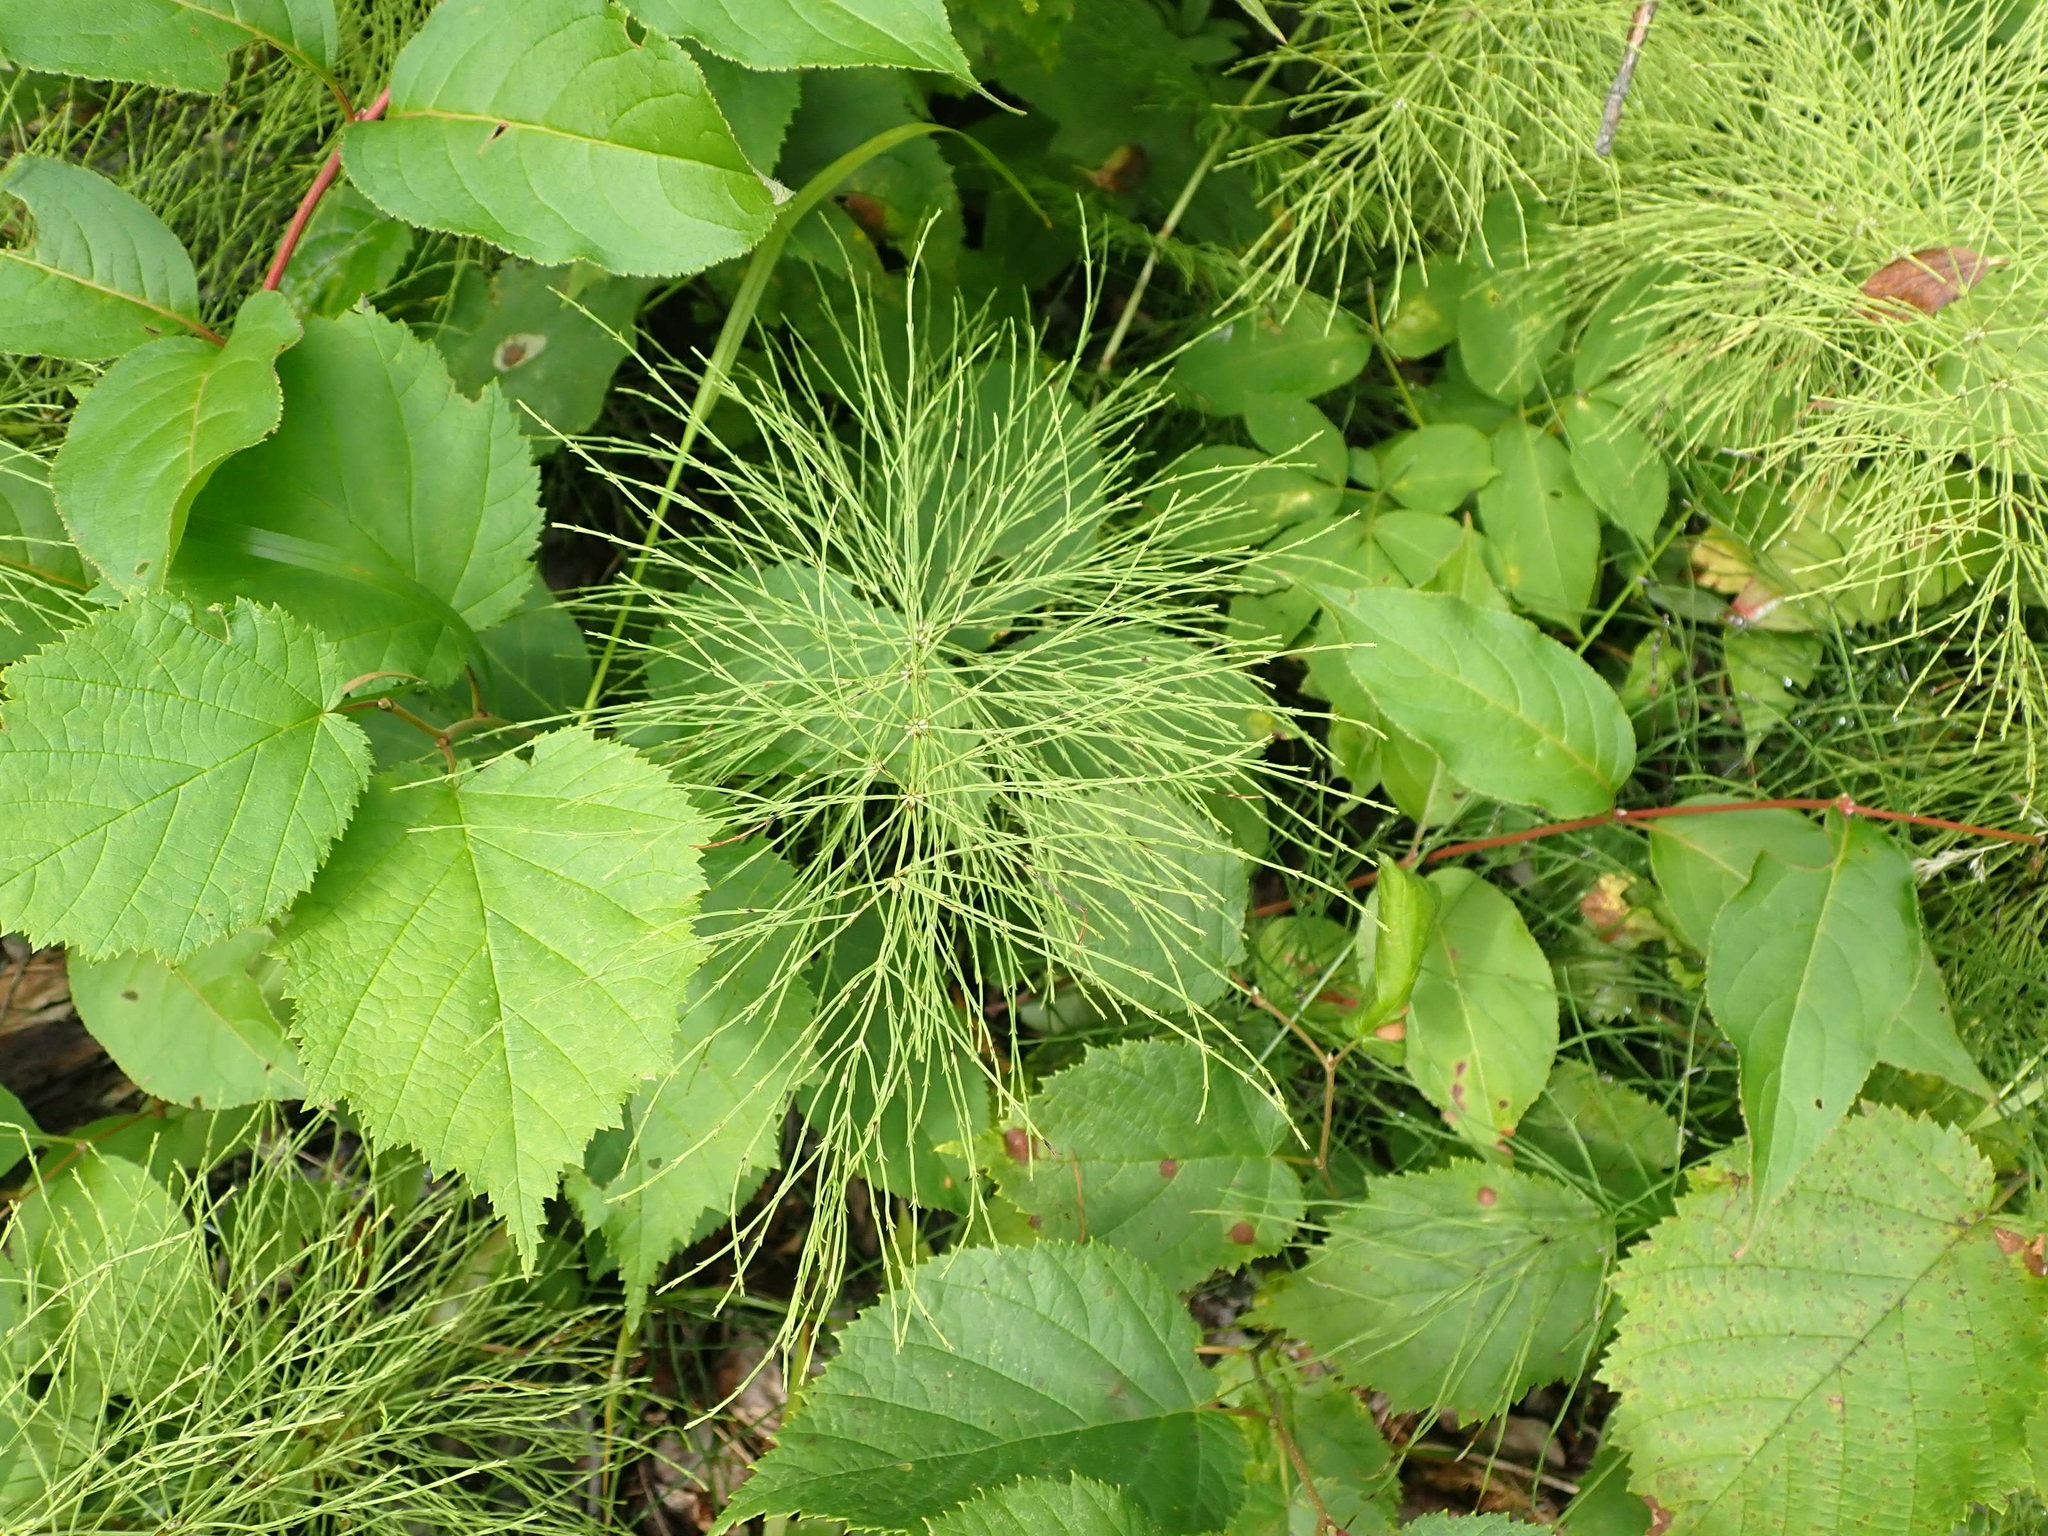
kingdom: Plantae
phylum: Tracheophyta
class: Polypodiopsida
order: Equisetales
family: Equisetaceae
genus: Equisetum
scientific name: Equisetum sylvaticum
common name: Wood horsetail
